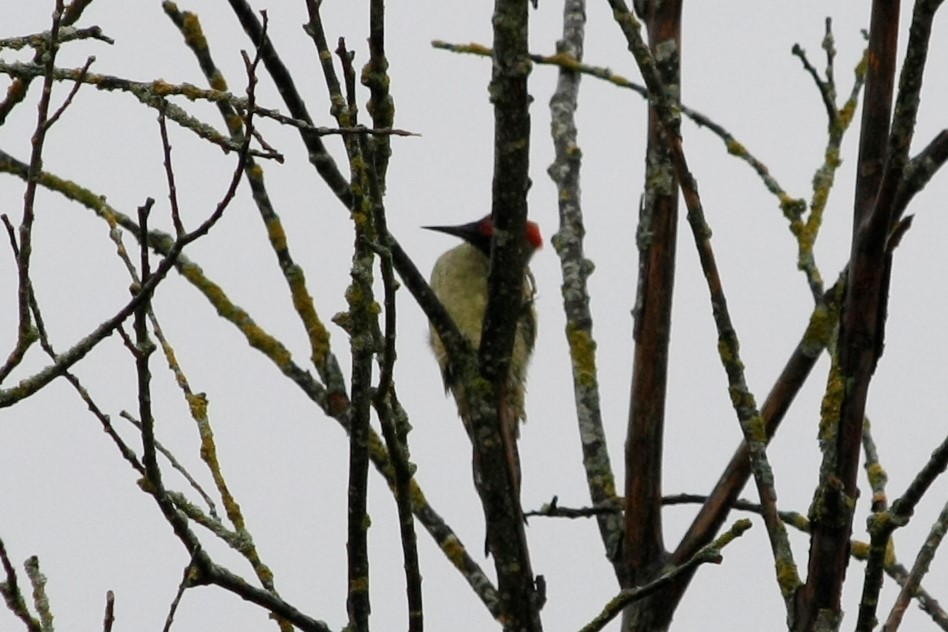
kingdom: Animalia
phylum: Chordata
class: Aves
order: Piciformes
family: Picidae
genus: Picus
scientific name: Picus viridis
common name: European green woodpecker
